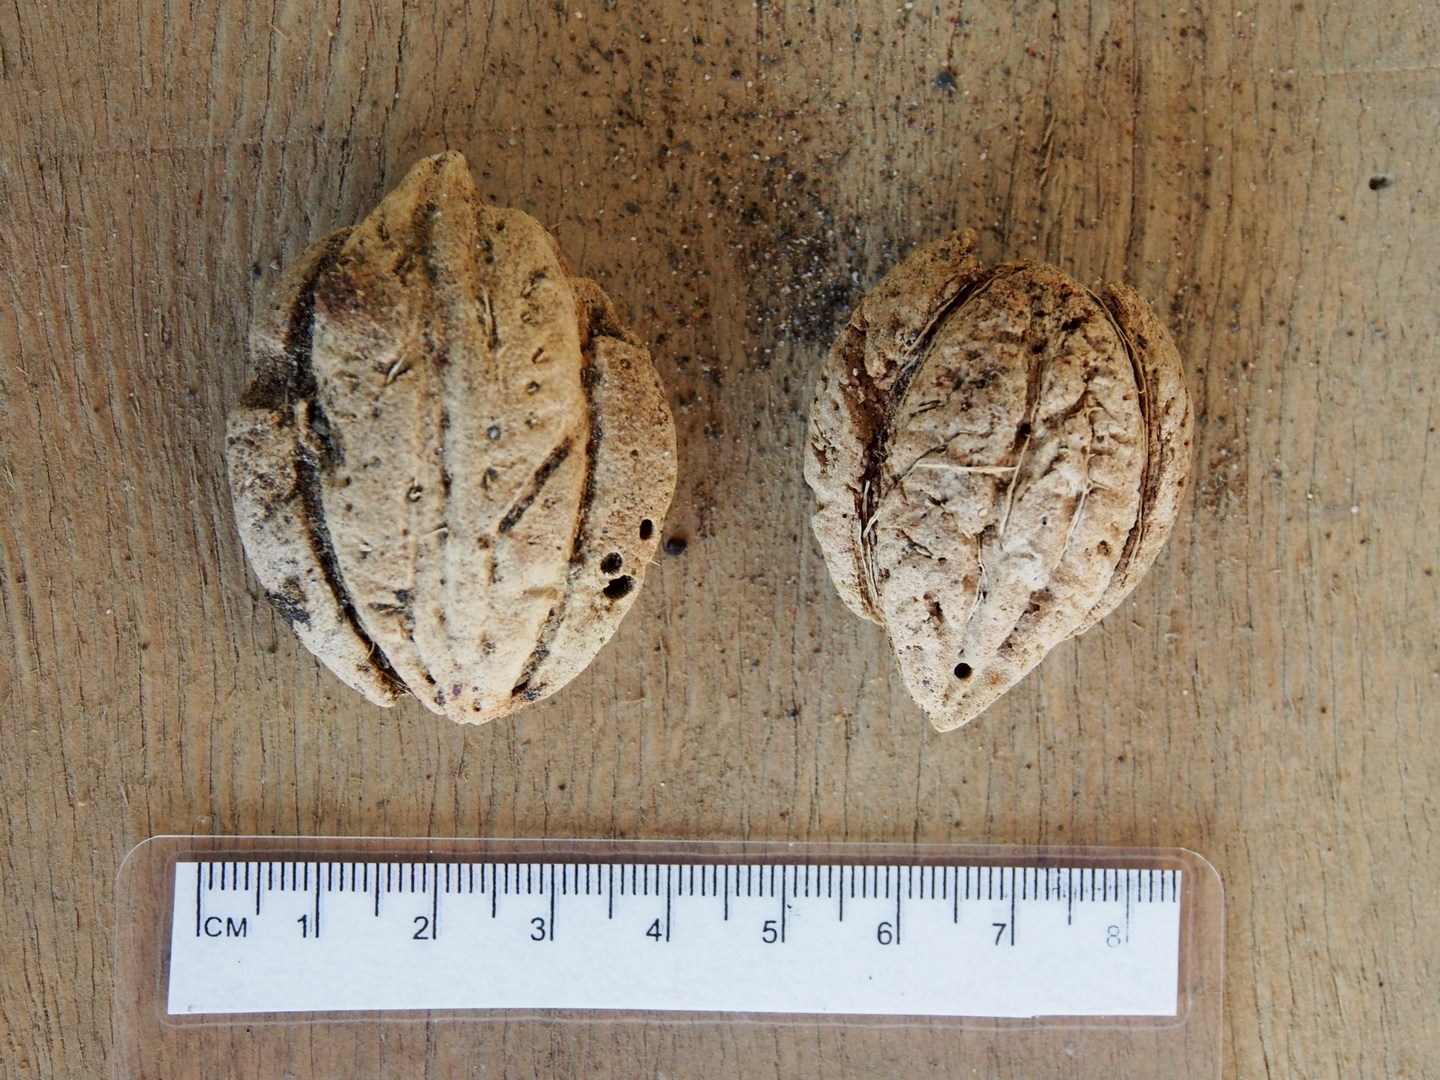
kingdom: Plantae
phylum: Tracheophyta
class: Magnoliopsida
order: Myrtales
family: Combretaceae
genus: Terminalia
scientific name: Terminalia catappa
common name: Tropical almond
